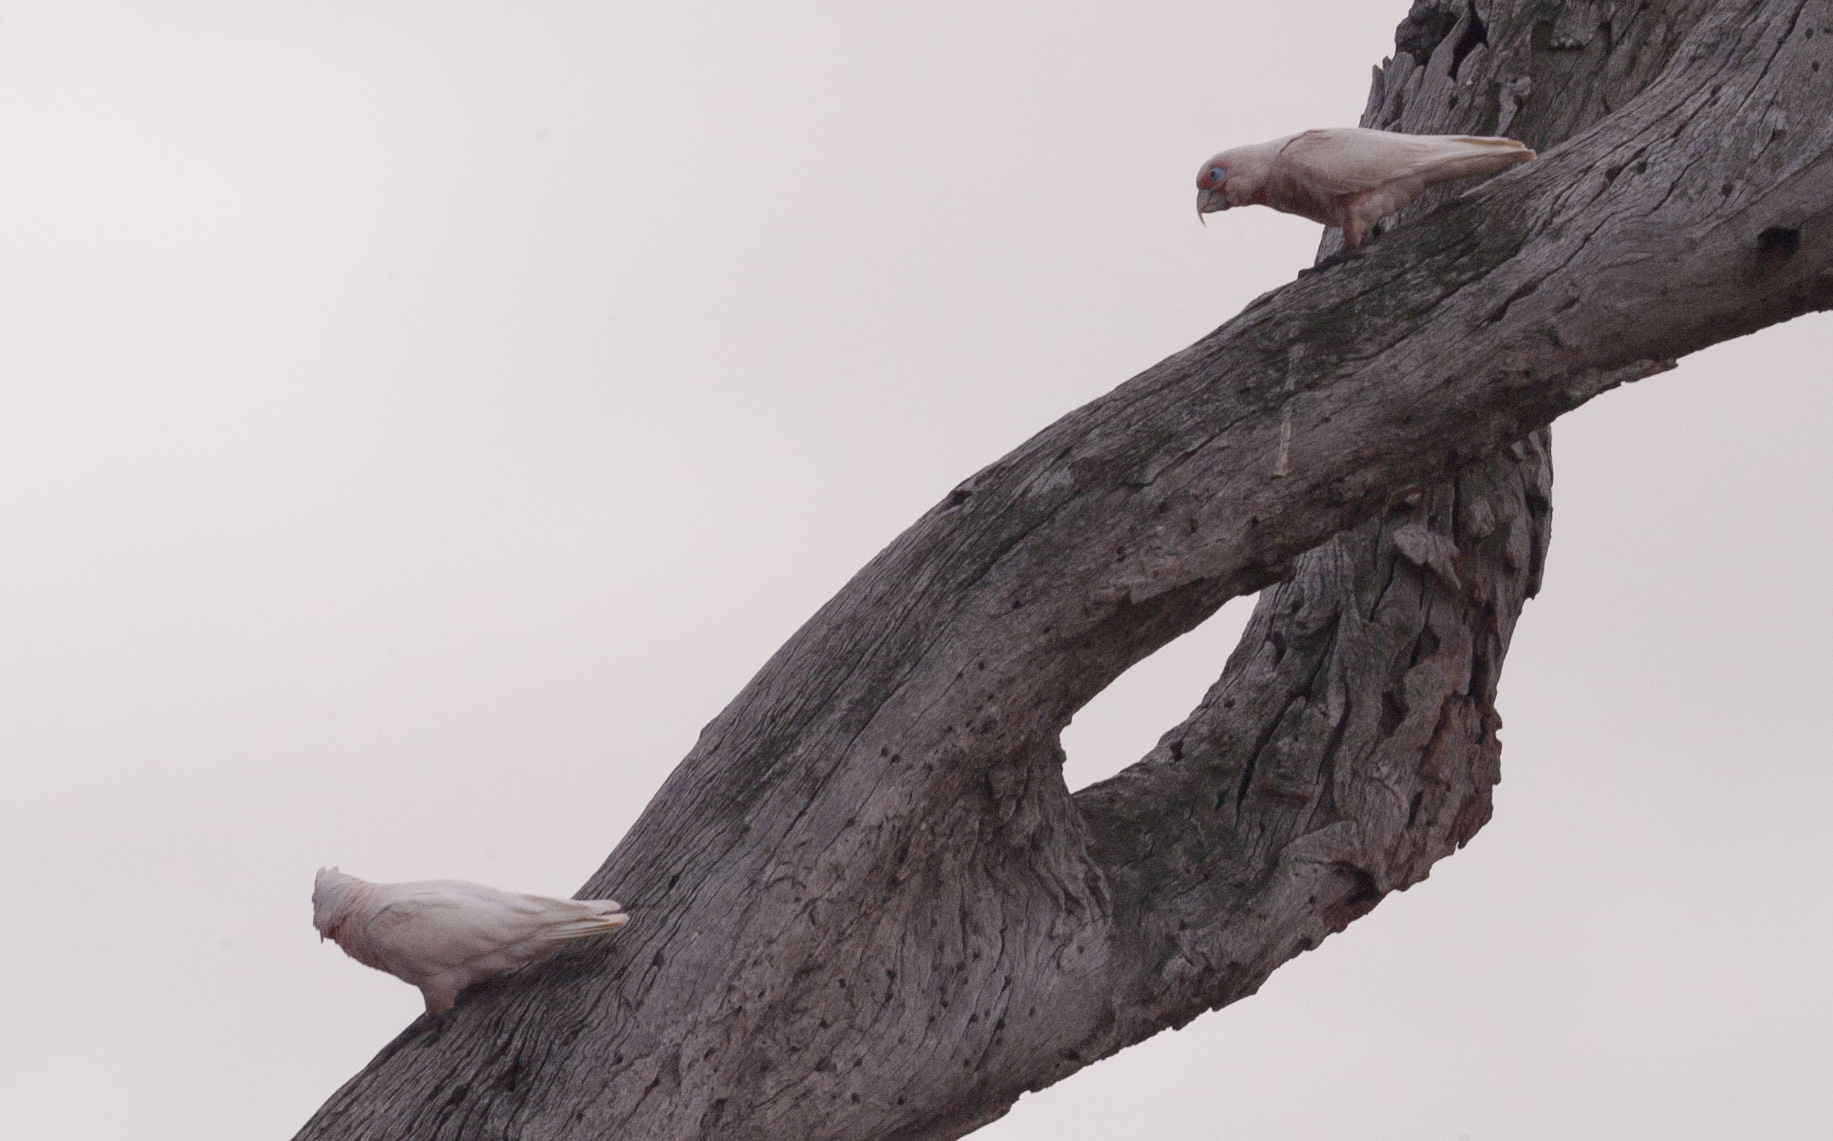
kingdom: Animalia
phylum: Chordata
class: Aves
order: Psittaciformes
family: Psittacidae
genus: Cacatua
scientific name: Cacatua tenuirostris
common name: Long-billed corella
